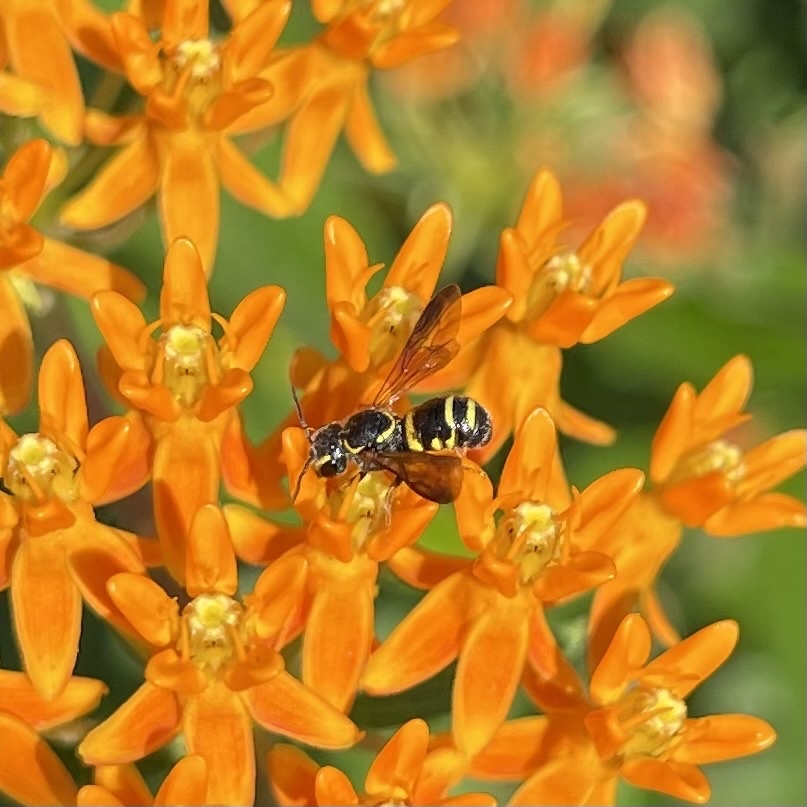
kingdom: Animalia
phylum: Arthropoda
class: Insecta
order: Hymenoptera
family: Megachilidae
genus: Stelis
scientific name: Stelis louisae
